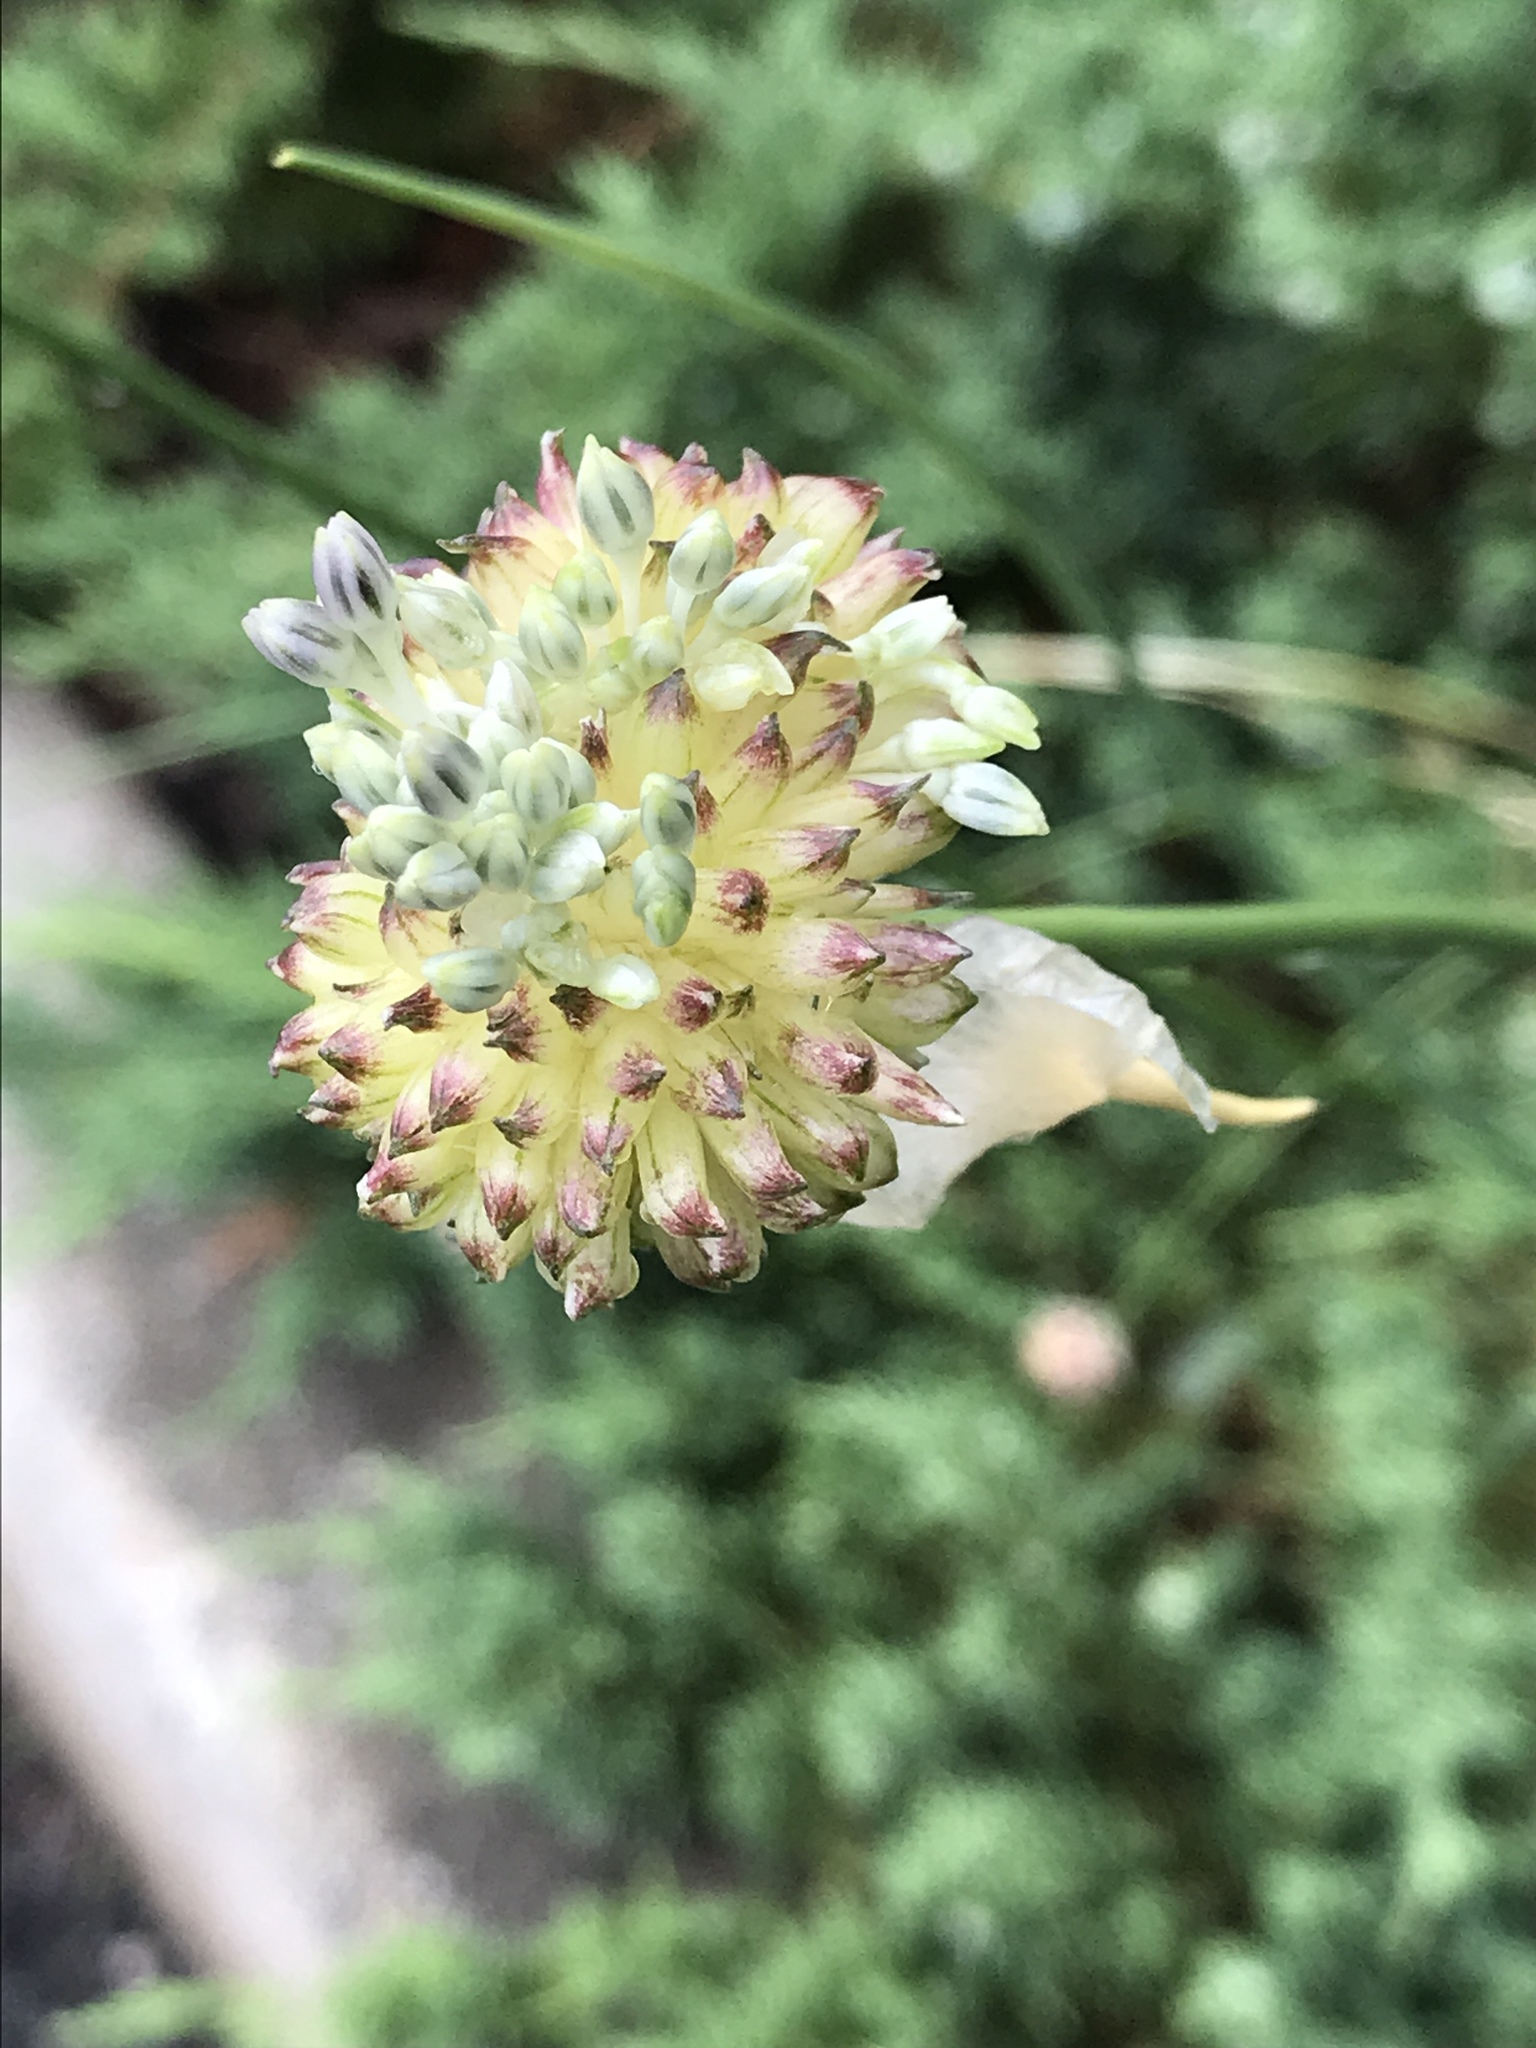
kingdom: Plantae
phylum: Tracheophyta
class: Liliopsida
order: Asparagales
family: Amaryllidaceae
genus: Allium
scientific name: Allium vineale
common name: Crow garlic
